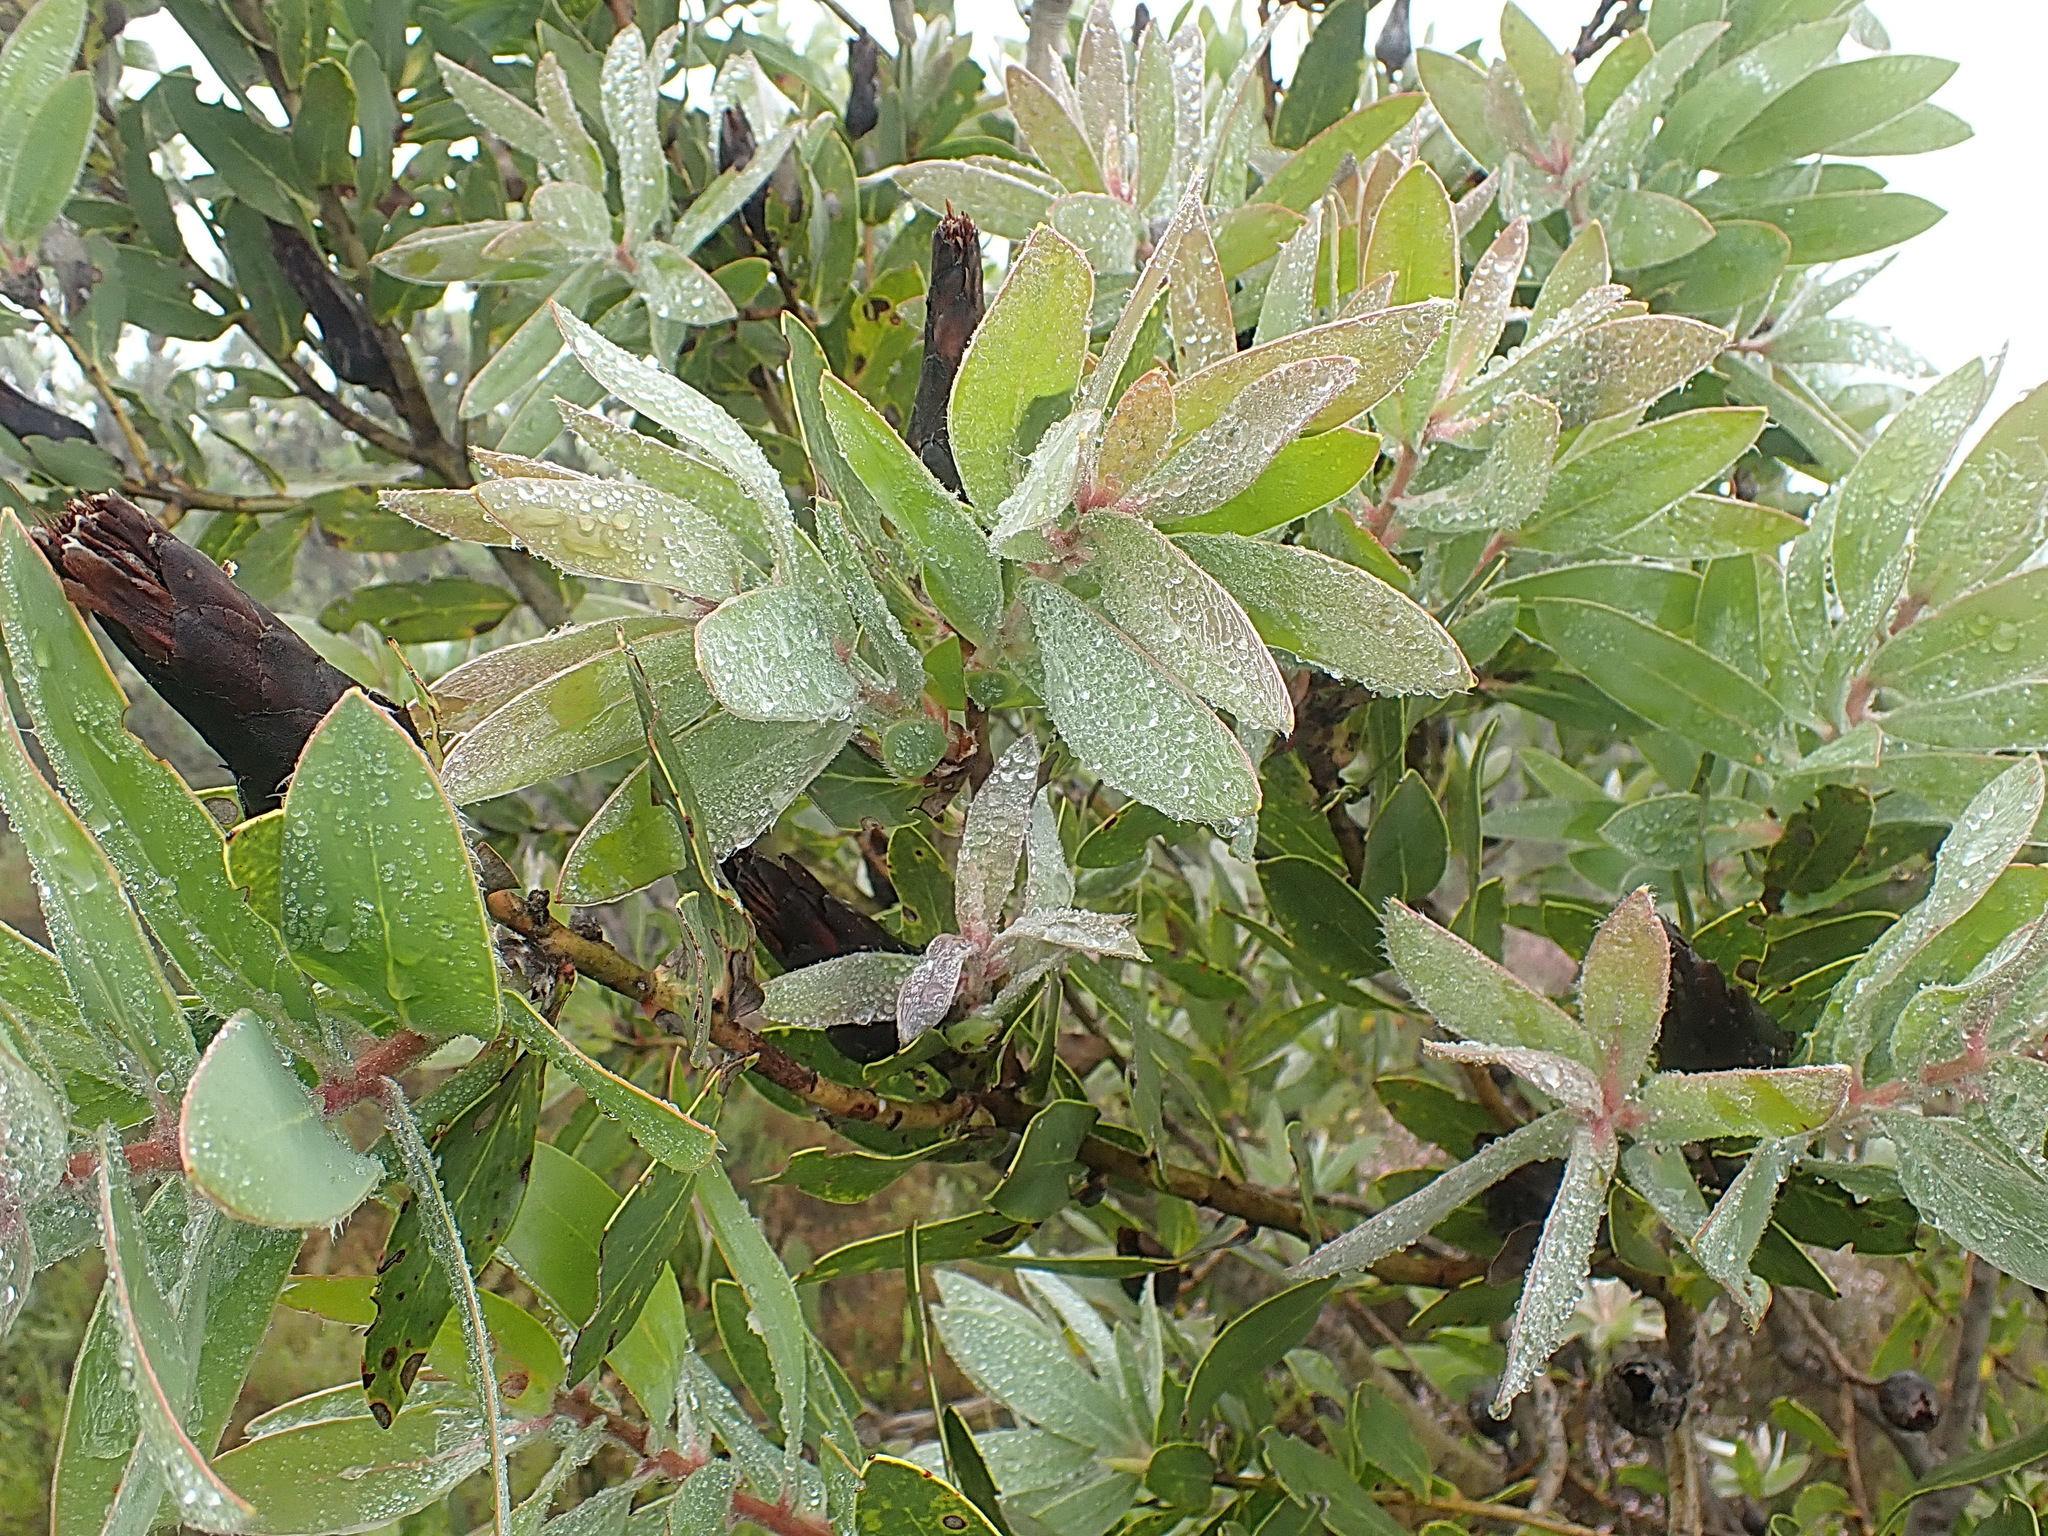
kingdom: Plantae
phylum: Tracheophyta
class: Magnoliopsida
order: Proteales
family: Proteaceae
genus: Protea
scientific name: Protea mundii
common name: Forest sugarbush
